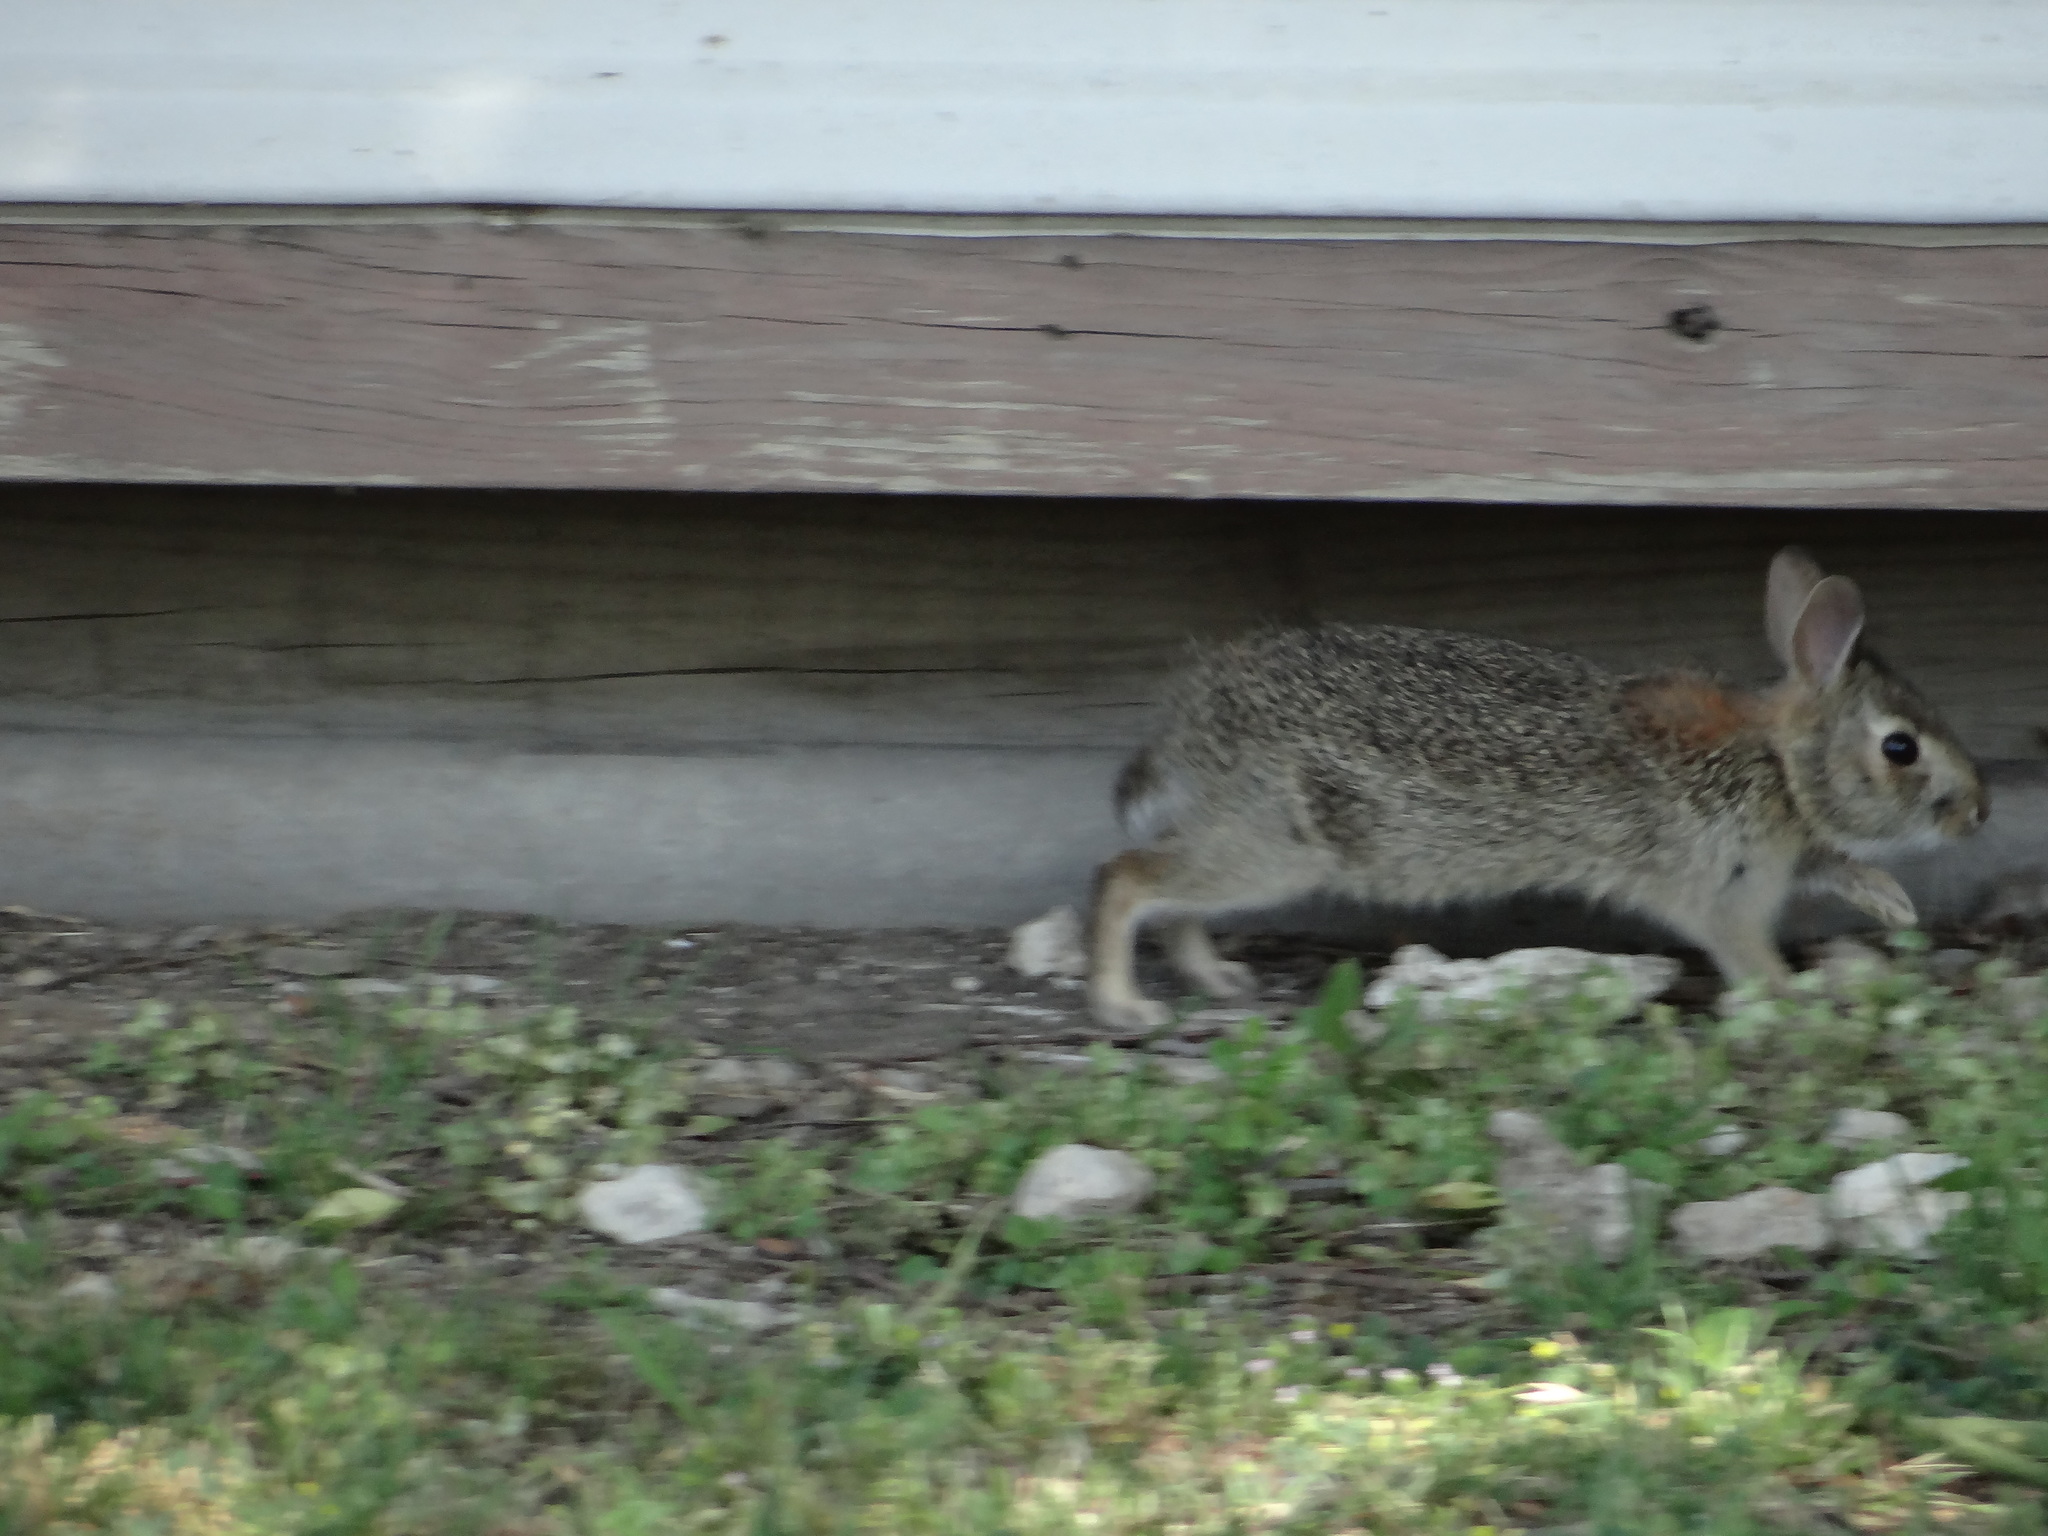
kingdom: Animalia
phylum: Chordata
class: Mammalia
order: Lagomorpha
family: Leporidae
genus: Sylvilagus
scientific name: Sylvilagus floridanus
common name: Eastern cottontail
